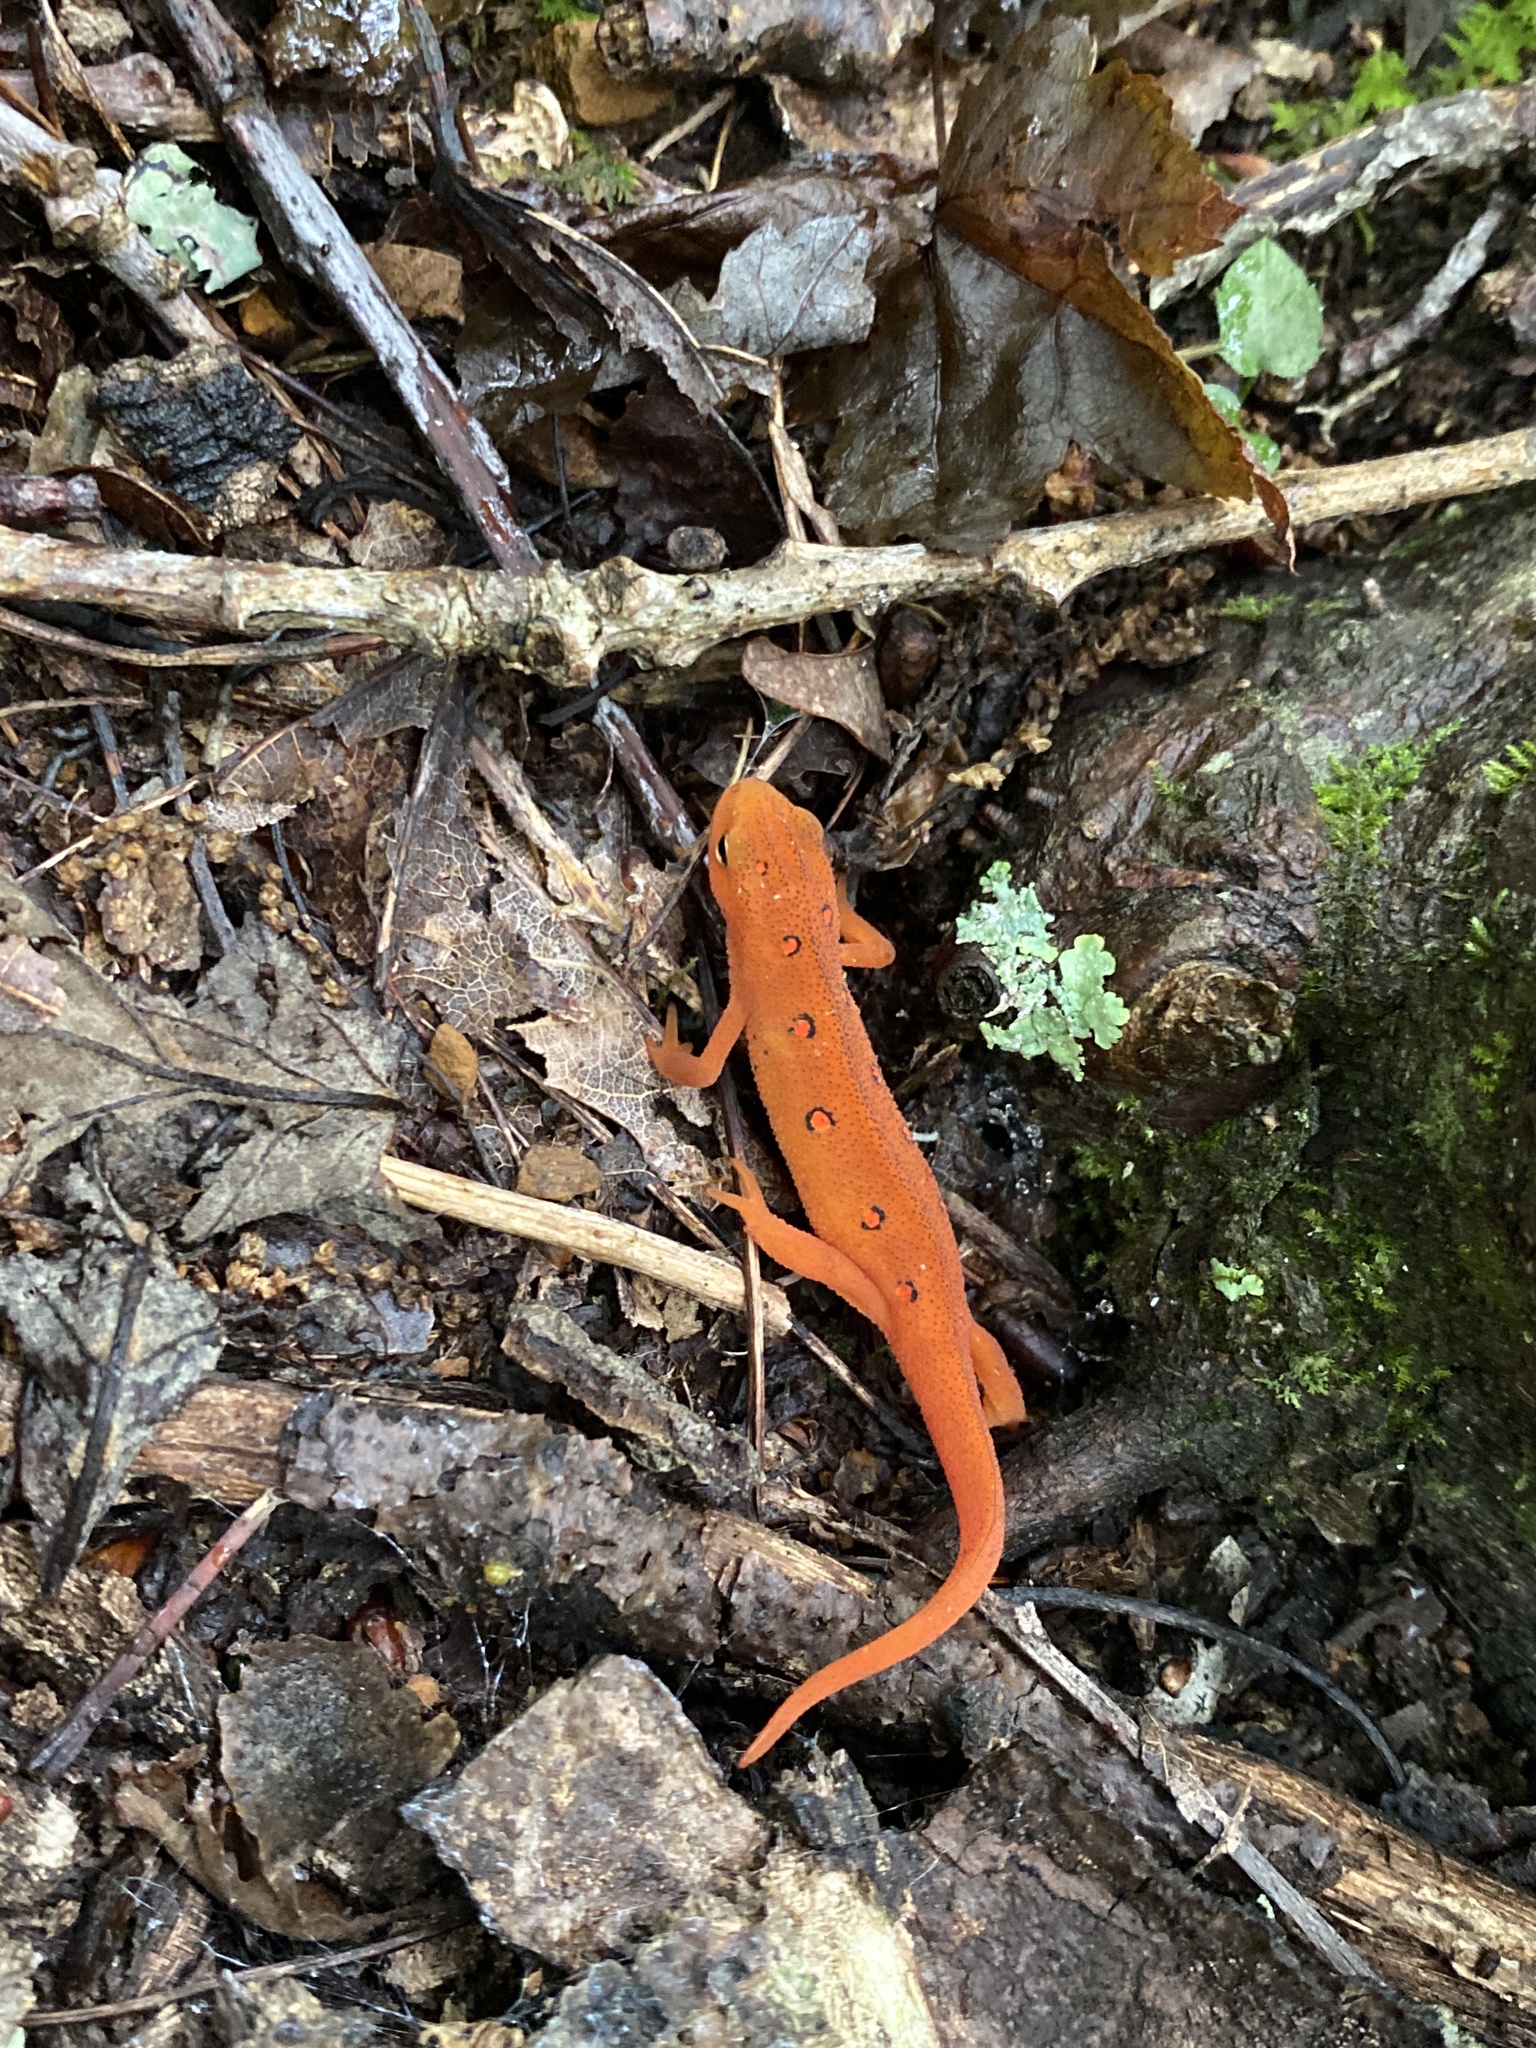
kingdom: Animalia
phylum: Chordata
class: Amphibia
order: Caudata
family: Salamandridae
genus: Notophthalmus
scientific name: Notophthalmus viridescens
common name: Eastern newt
